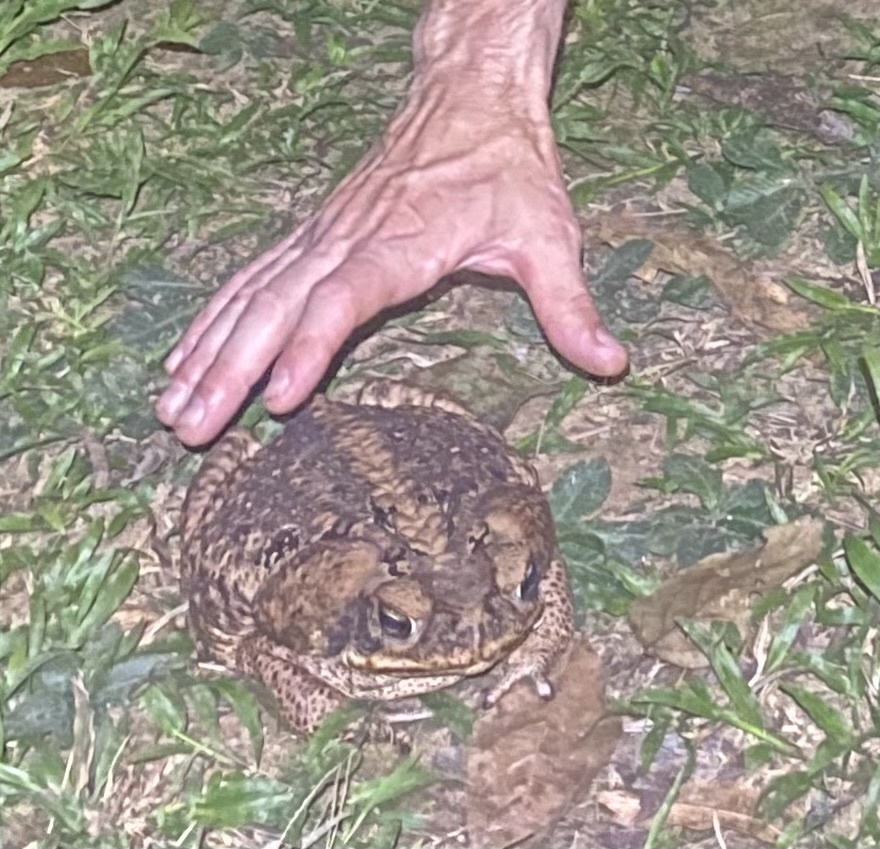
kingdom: Animalia
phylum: Chordata
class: Amphibia
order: Anura
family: Bufonidae
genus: Rhinella
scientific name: Rhinella marina
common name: Cane toad
